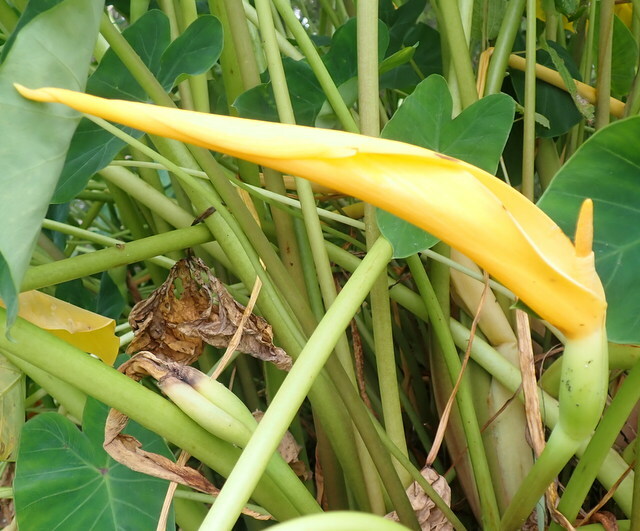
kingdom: Plantae
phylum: Tracheophyta
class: Liliopsida
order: Alismatales
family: Araceae
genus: Colocasia
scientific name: Colocasia esculenta
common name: Taro
